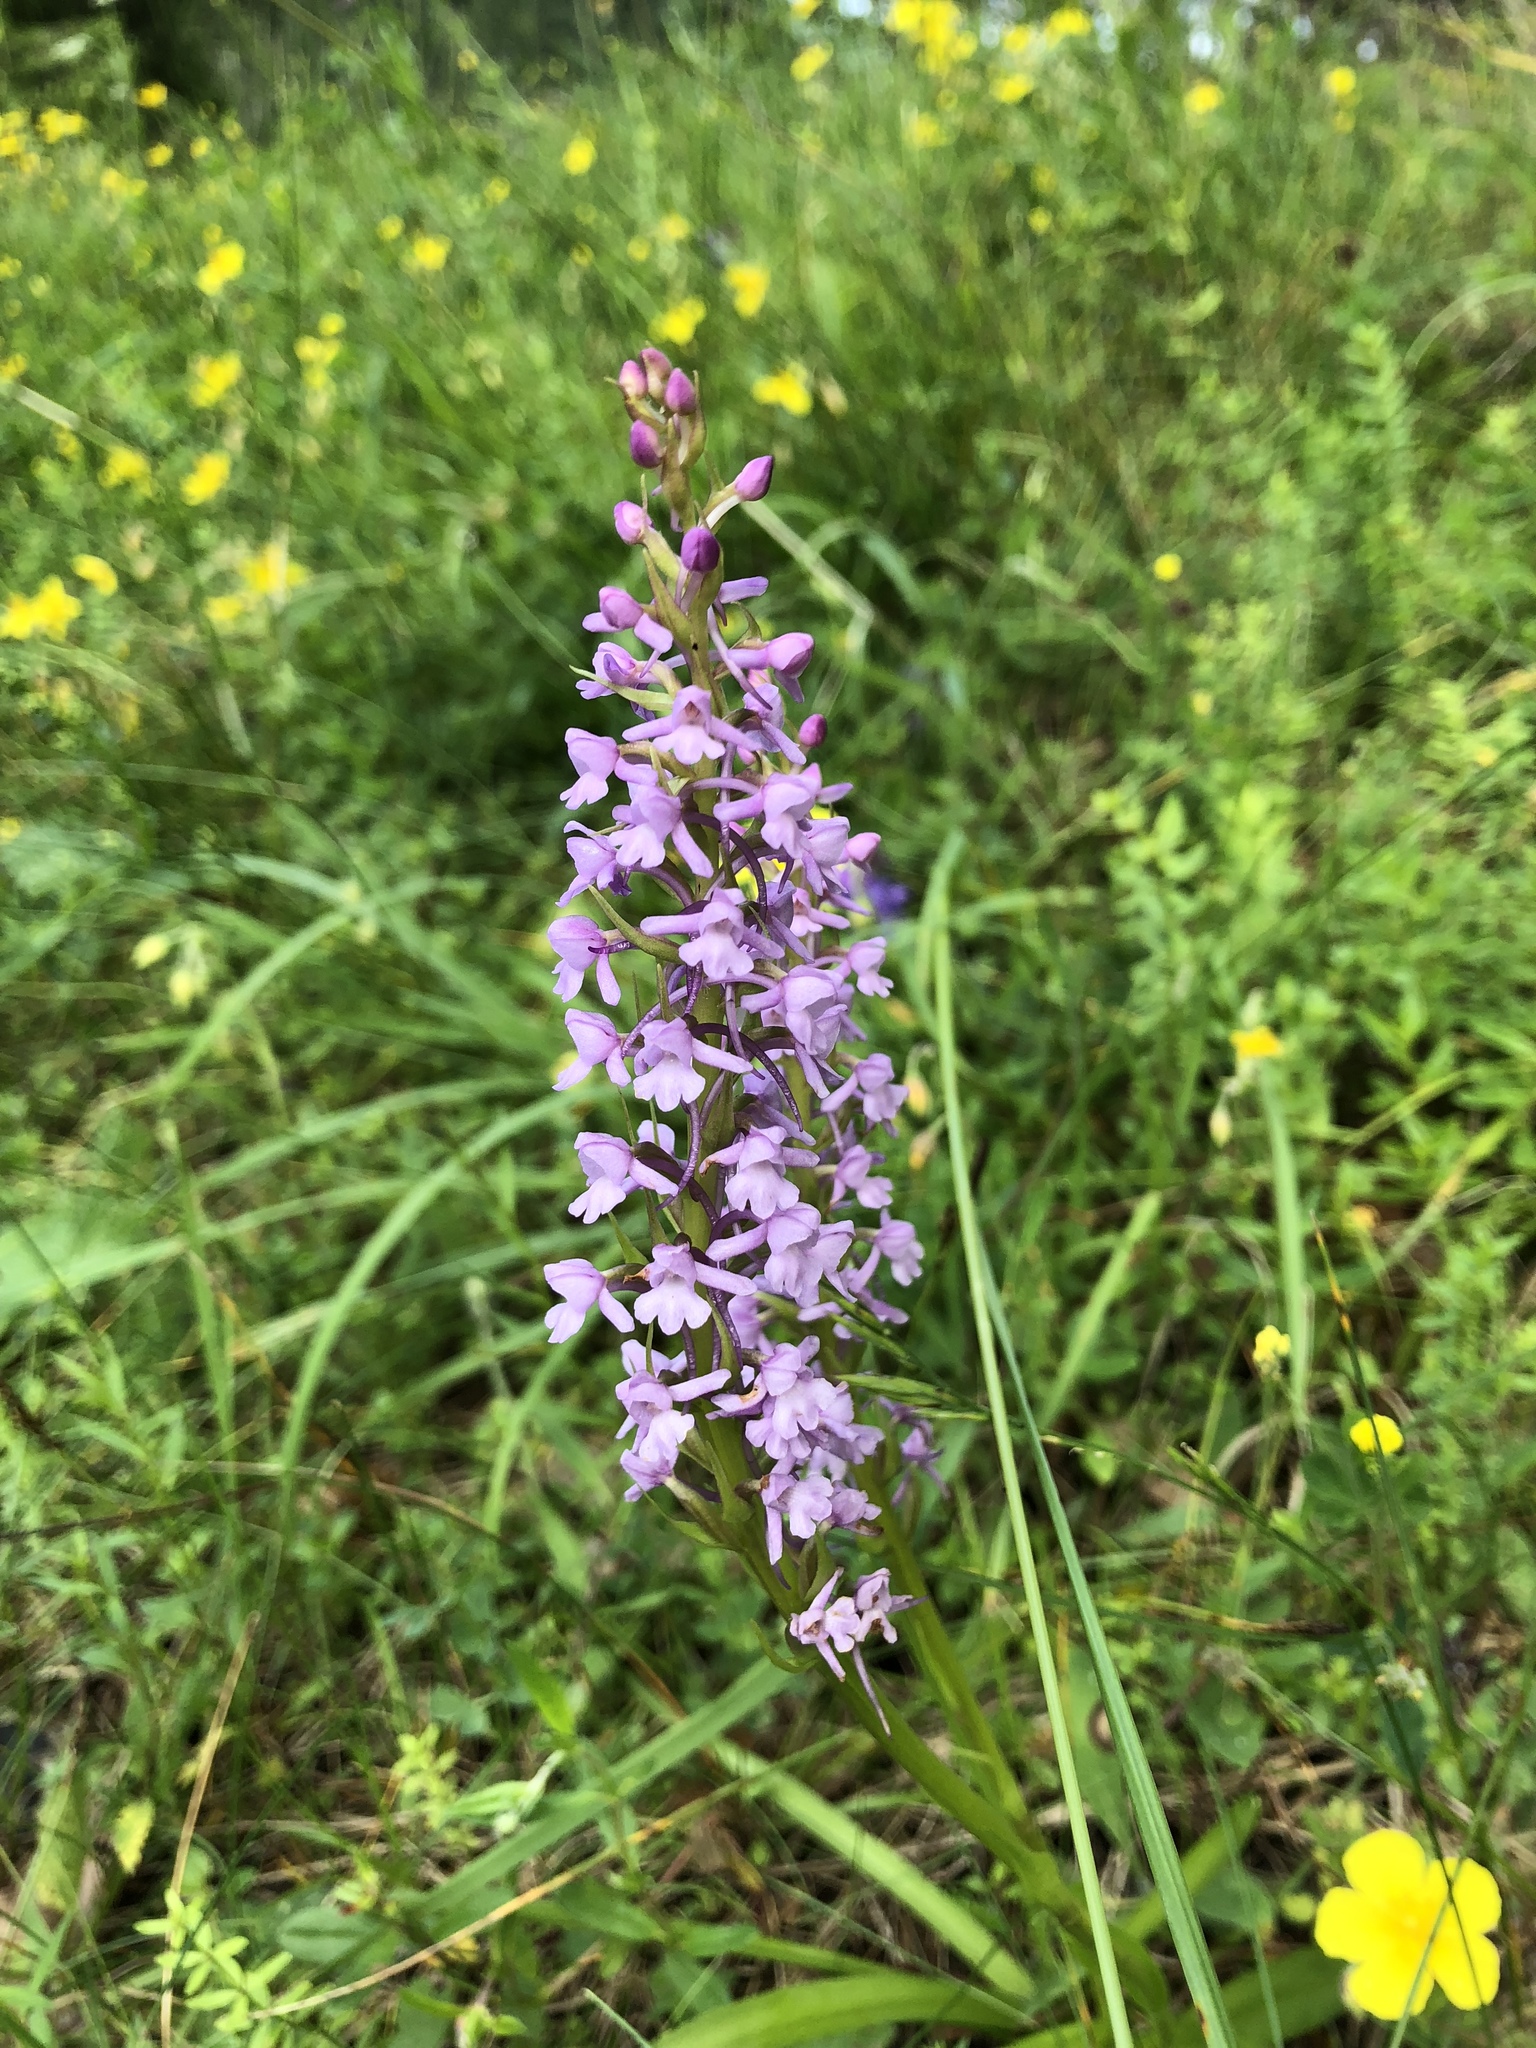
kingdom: Plantae
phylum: Tracheophyta
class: Liliopsida
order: Asparagales
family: Orchidaceae
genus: Gymnadenia
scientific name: Gymnadenia conopsea
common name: Fragrant orchid
